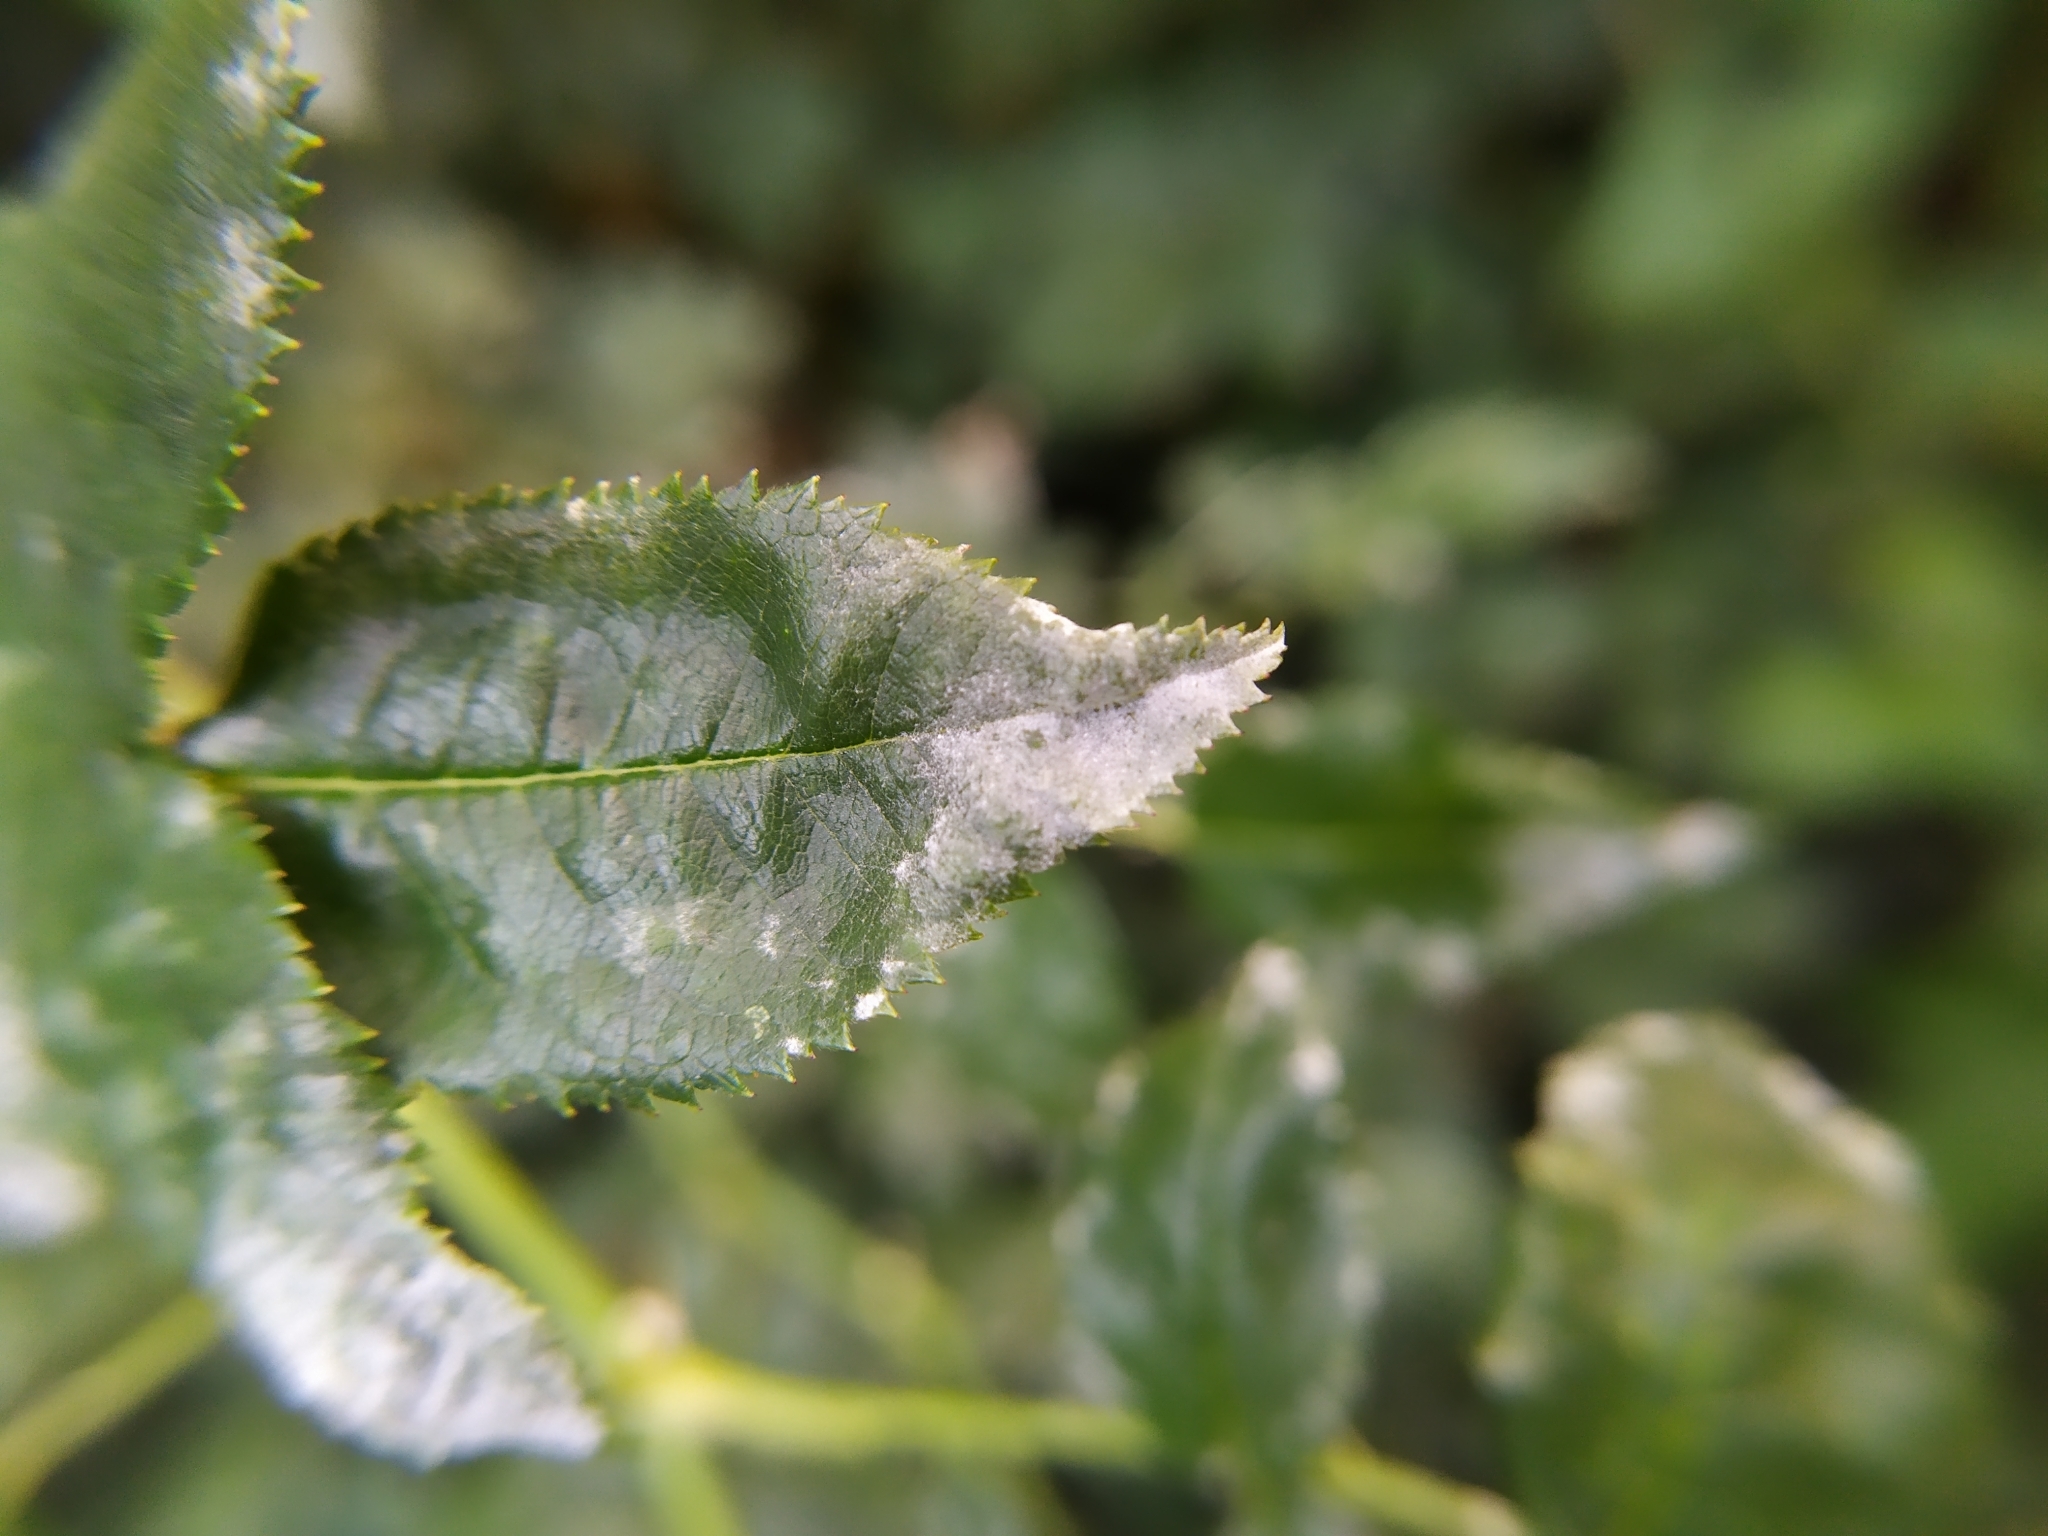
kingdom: Fungi
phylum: Ascomycota
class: Leotiomycetes
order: Helotiales
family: Erysiphaceae
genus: Podosphaera
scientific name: Podosphaera pannosa
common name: Rose mildew
